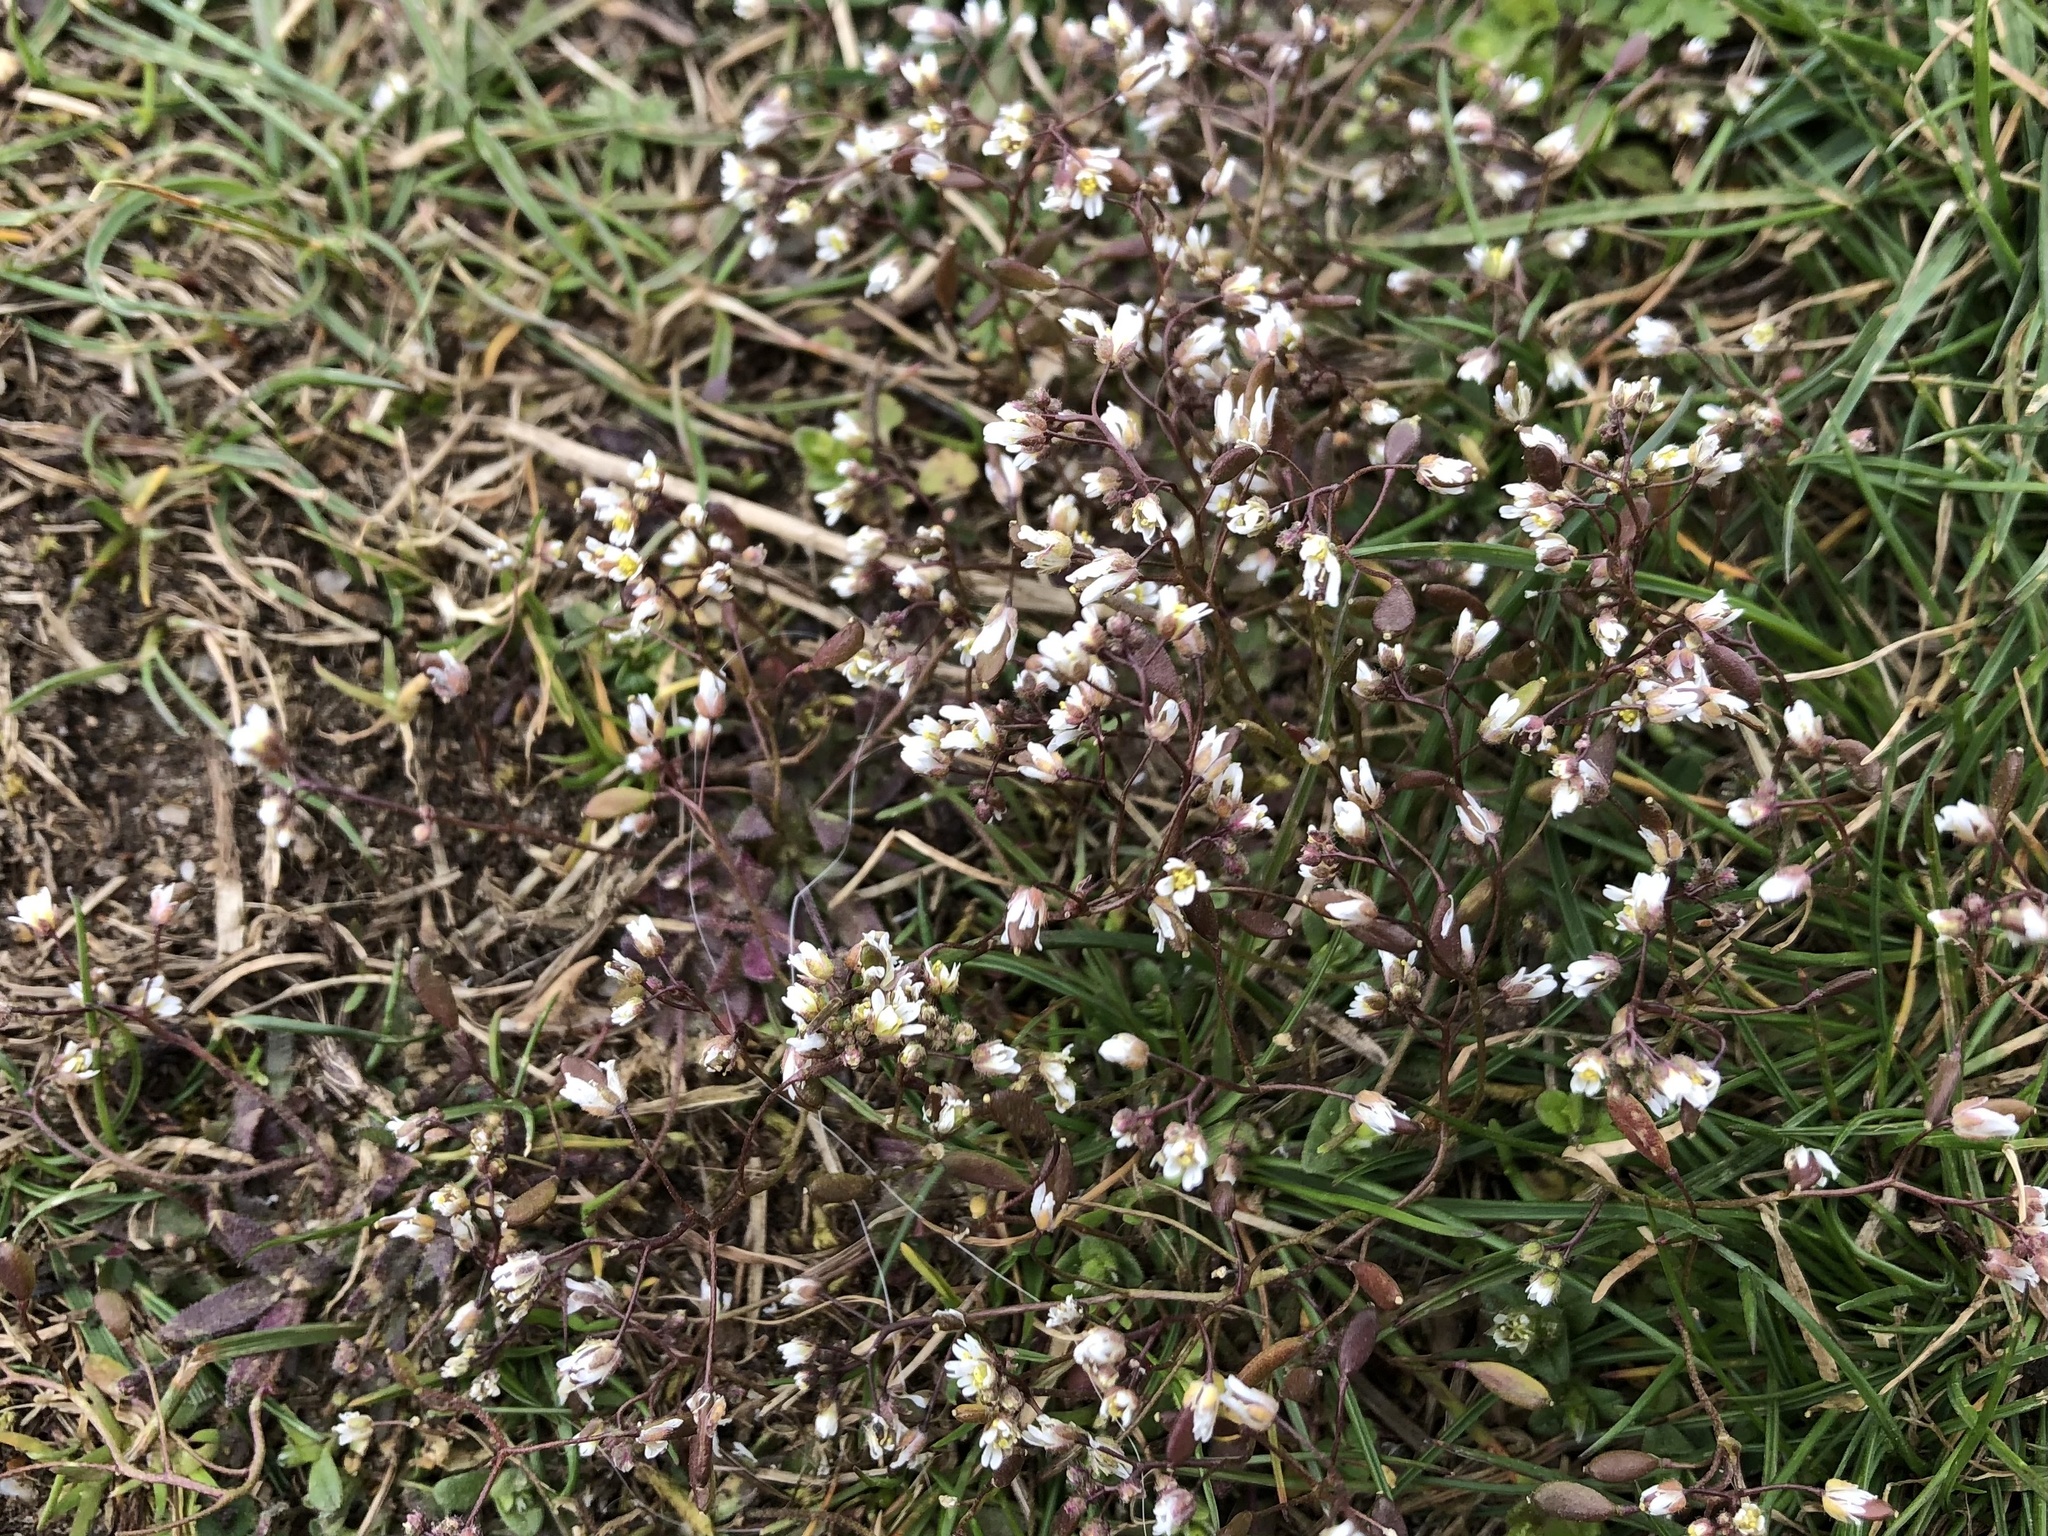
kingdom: Plantae
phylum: Tracheophyta
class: Magnoliopsida
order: Brassicales
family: Brassicaceae
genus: Draba
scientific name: Draba verna
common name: Spring draba
